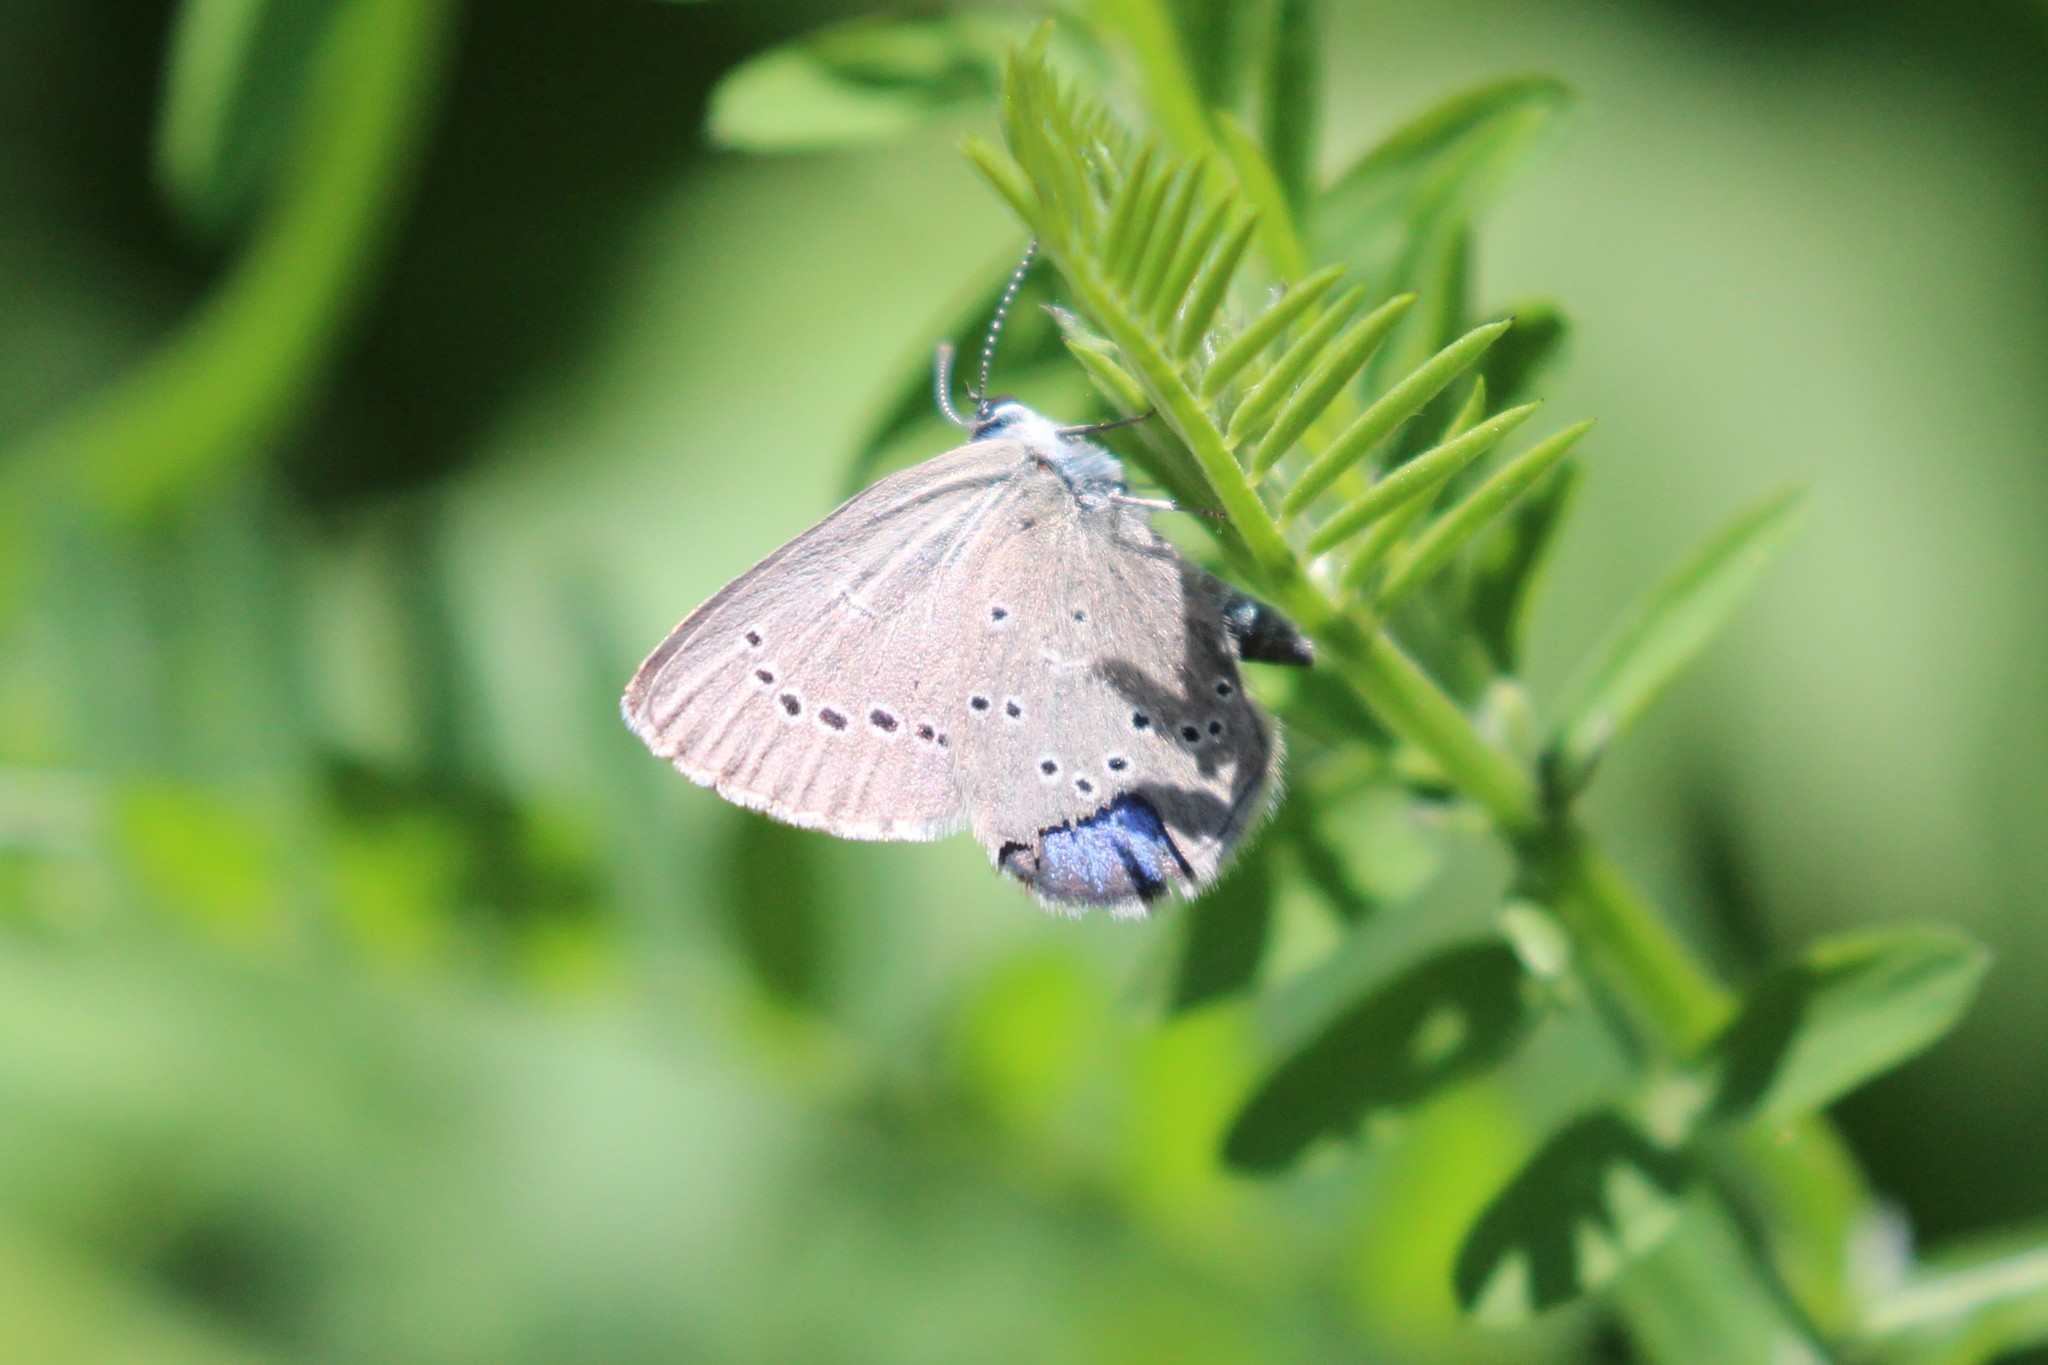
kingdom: Animalia
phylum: Arthropoda
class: Insecta
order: Lepidoptera
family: Lycaenidae
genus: Glaucopsyche
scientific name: Glaucopsyche lygdamus
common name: Silvery blue
